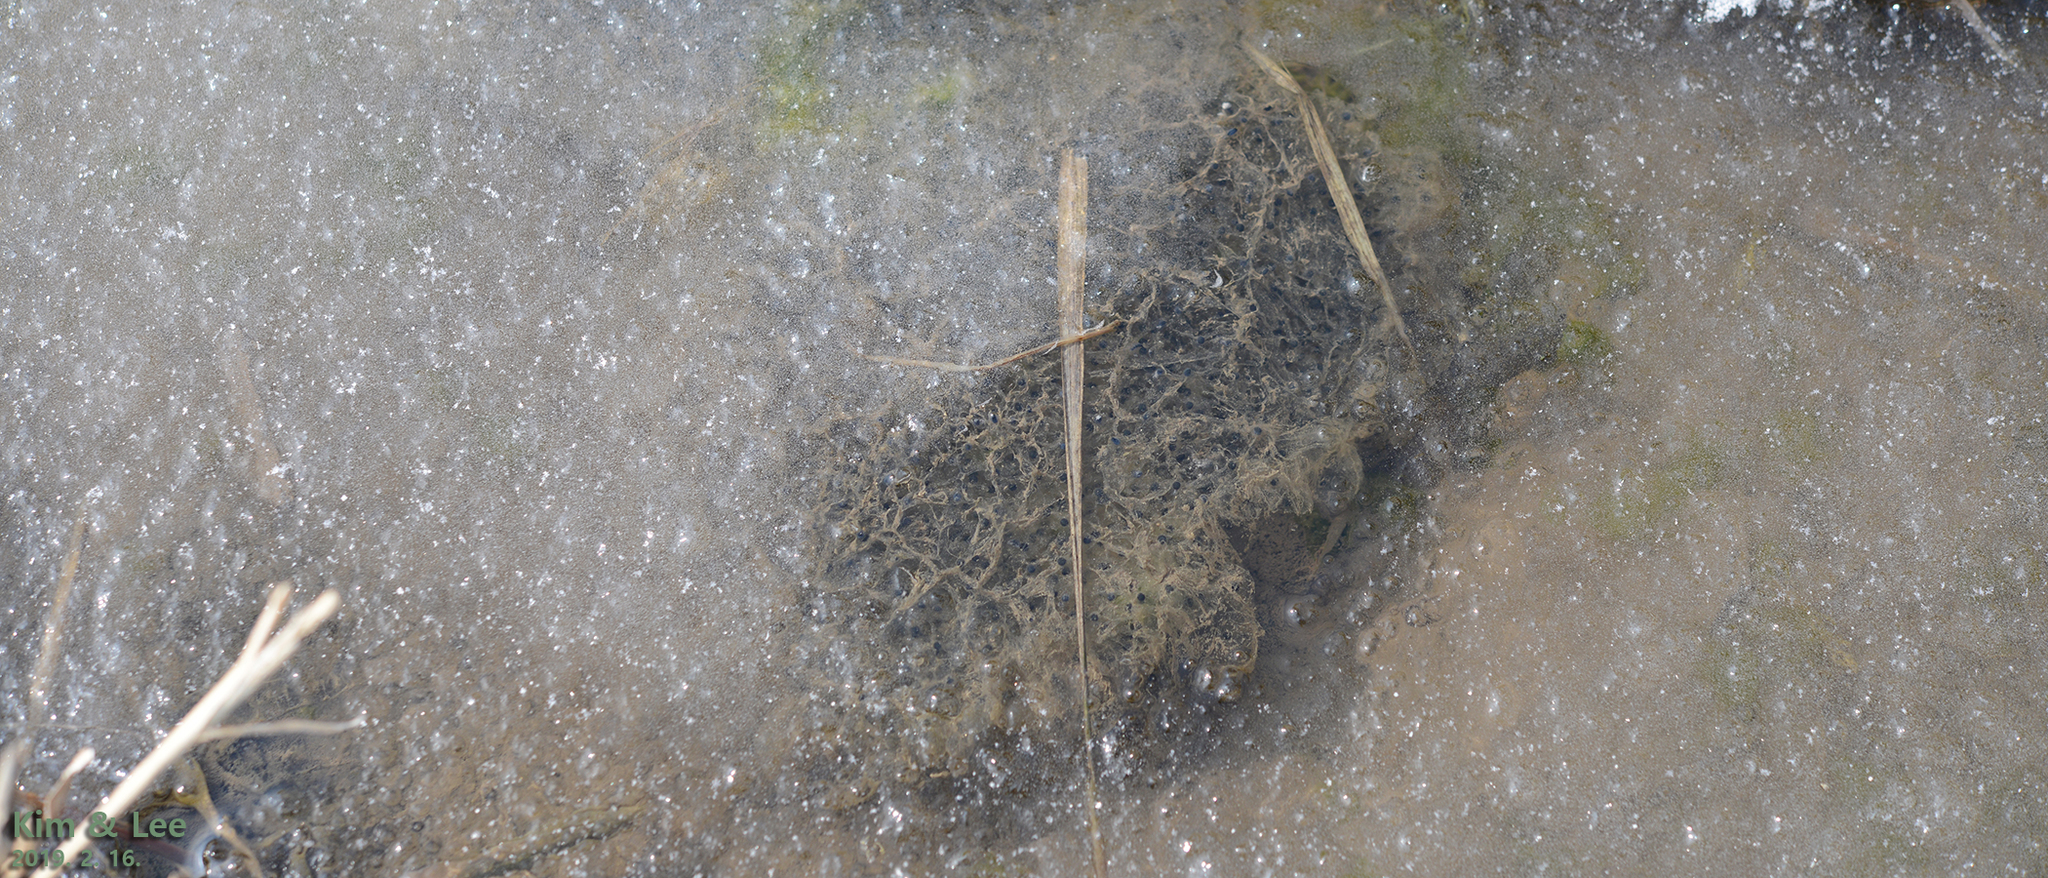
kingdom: Animalia
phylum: Chordata
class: Amphibia
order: Anura
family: Ranidae
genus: Rana
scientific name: Rana uenoi
